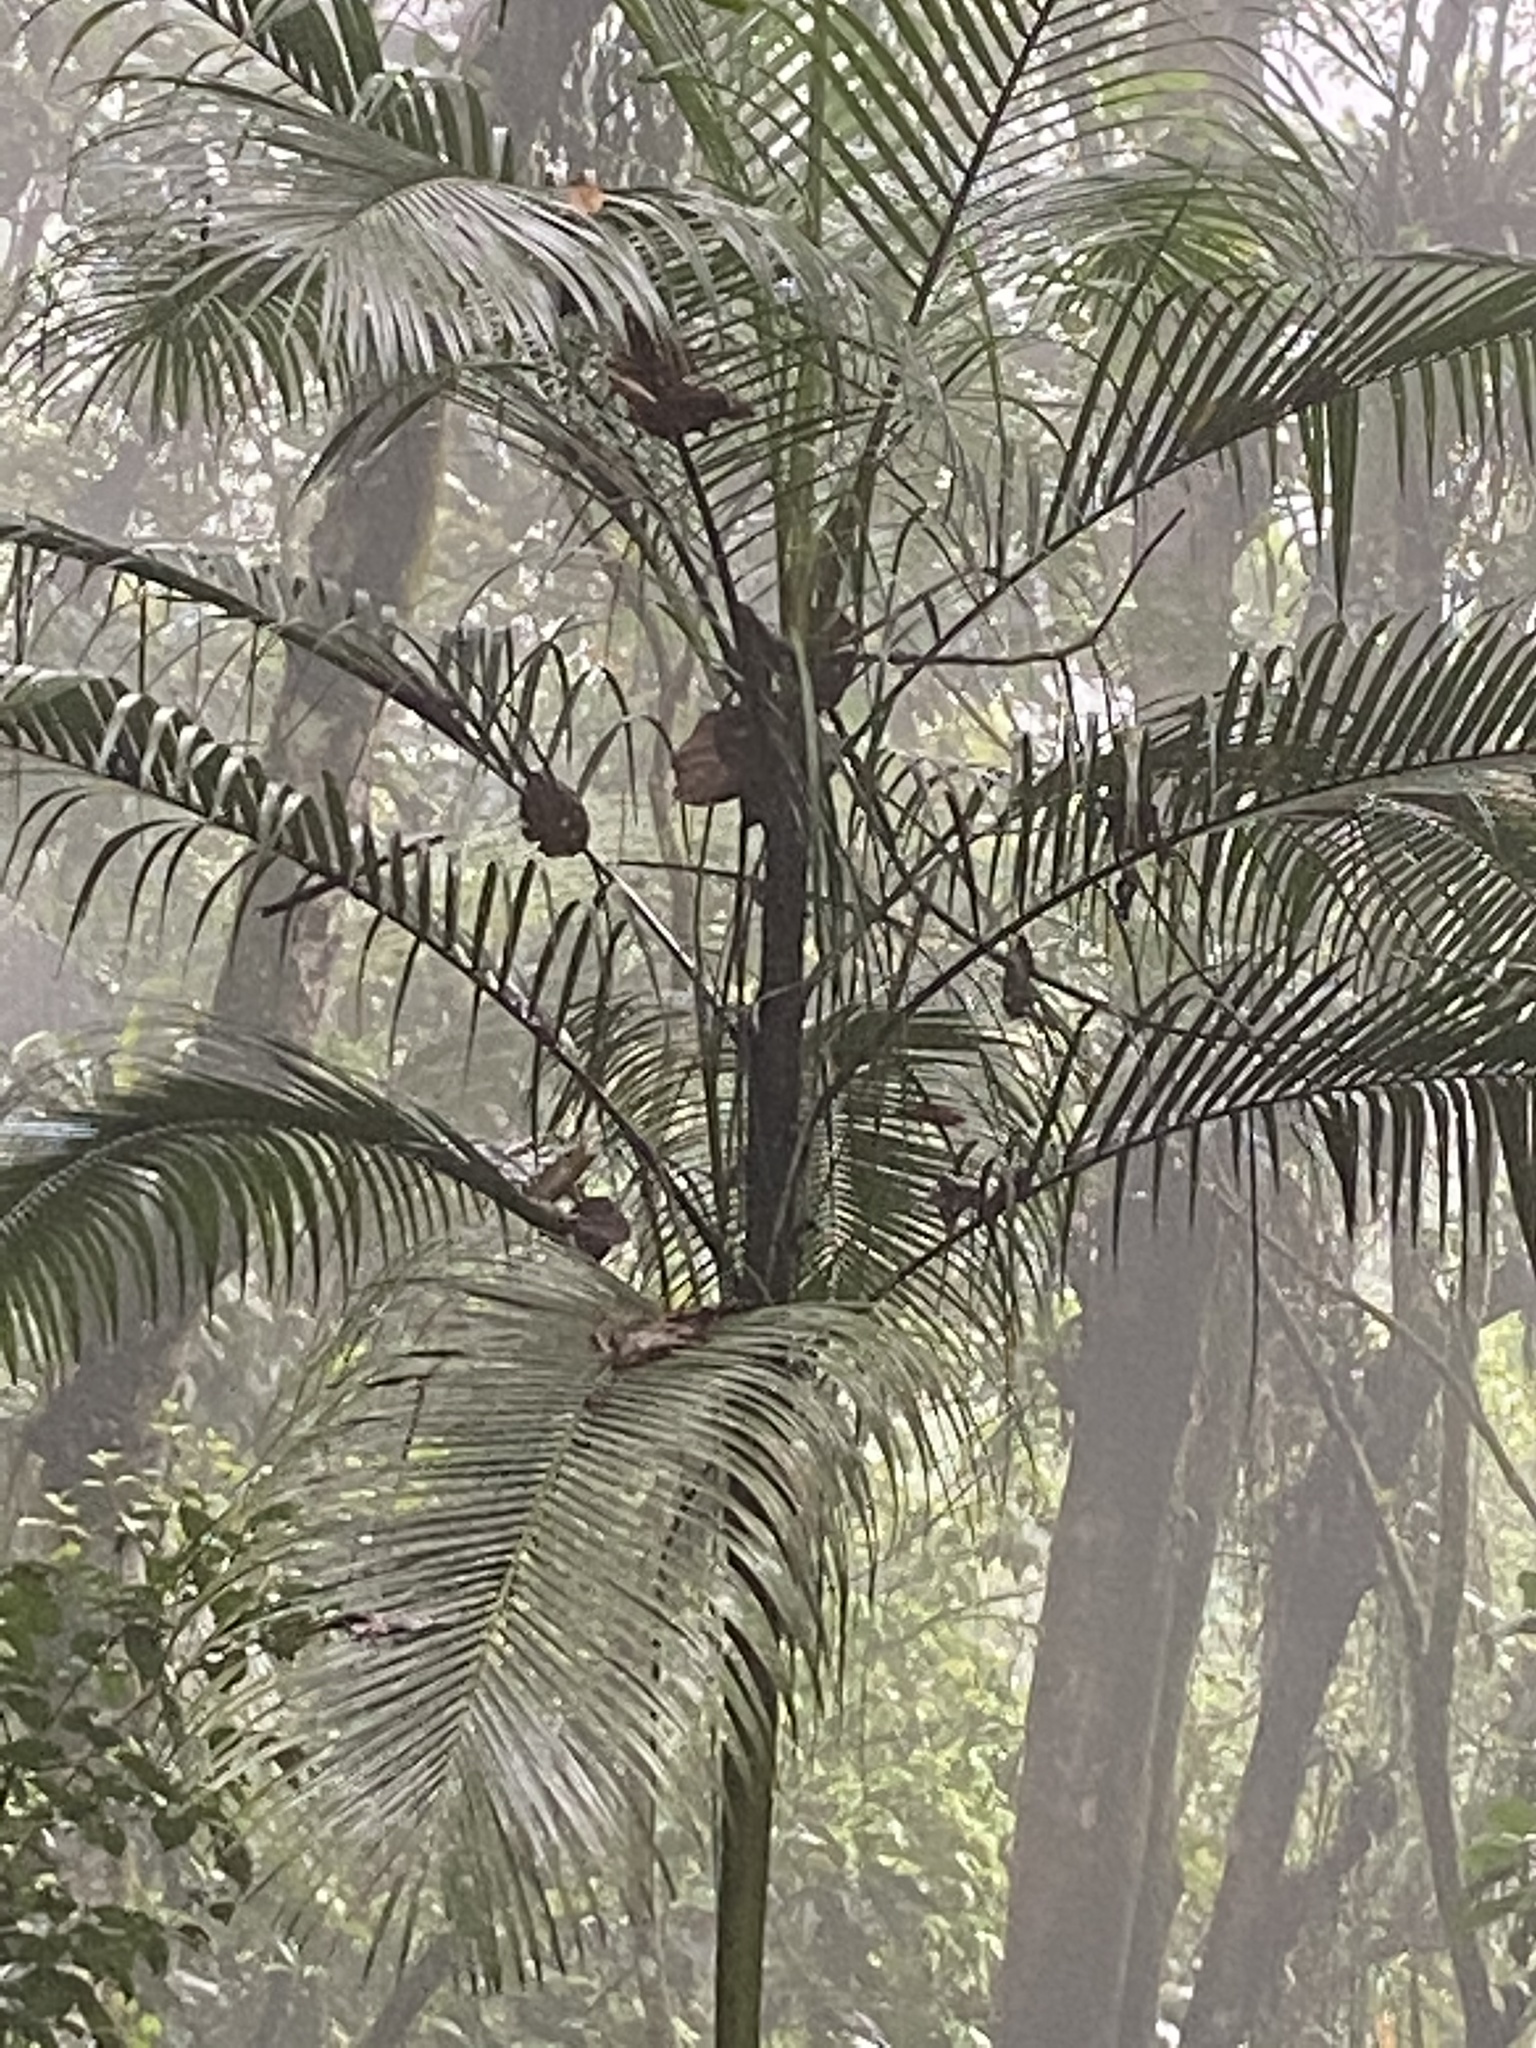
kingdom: Plantae
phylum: Tracheophyta
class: Liliopsida
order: Arecales
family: Arecaceae
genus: Euterpe
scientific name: Euterpe edulis
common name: Assai palm
